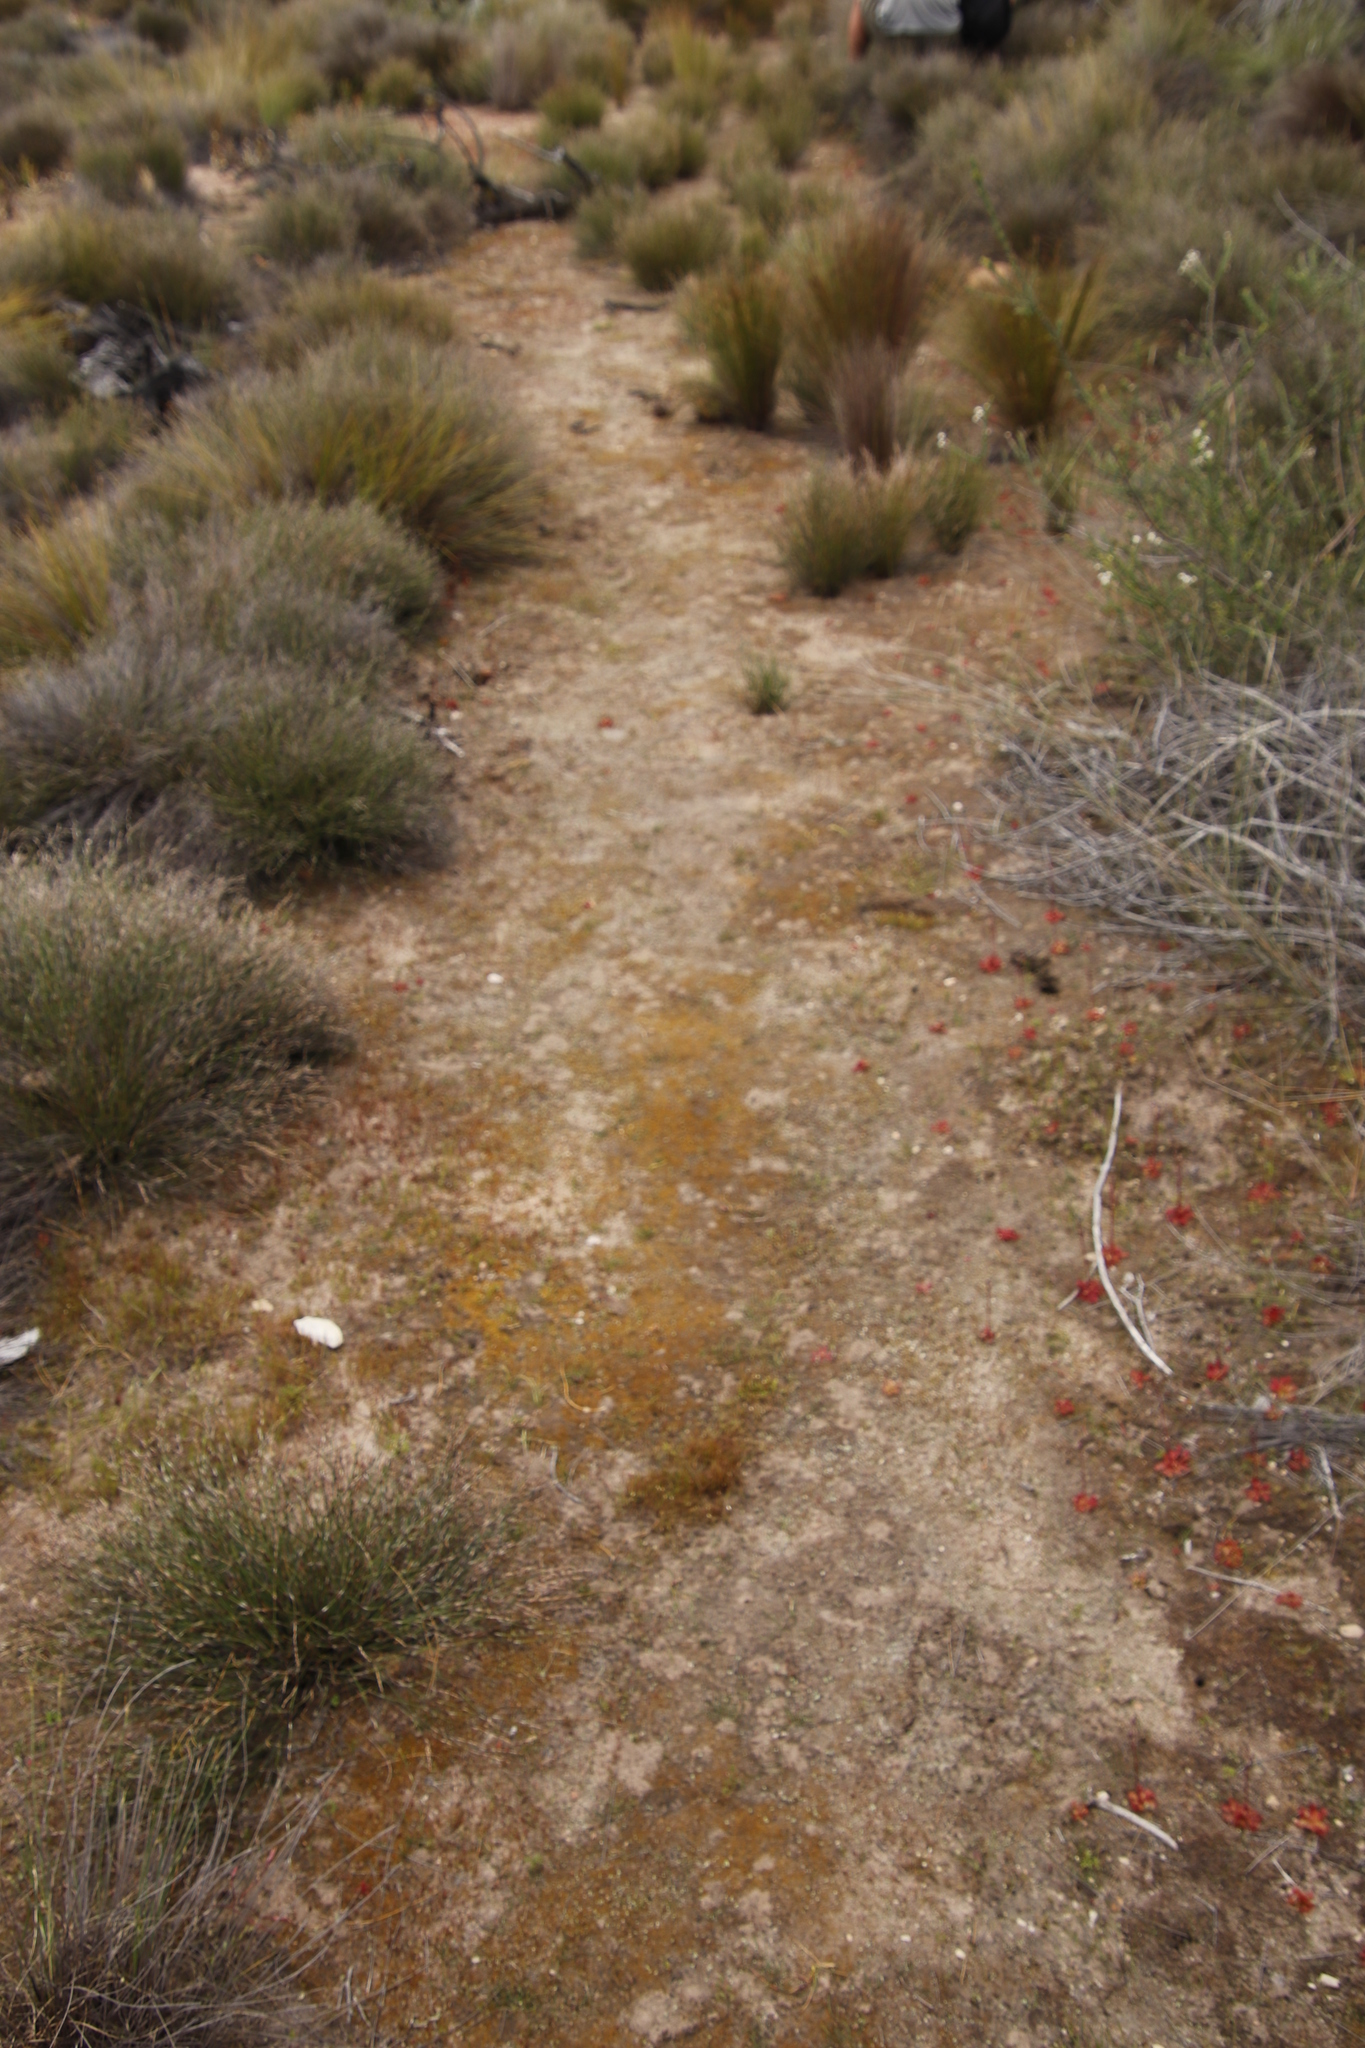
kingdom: Plantae
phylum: Bryophyta
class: Bryopsida
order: Dicranales
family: Ditrichaceae
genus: Pleuridium
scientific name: Pleuridium ecklonii
